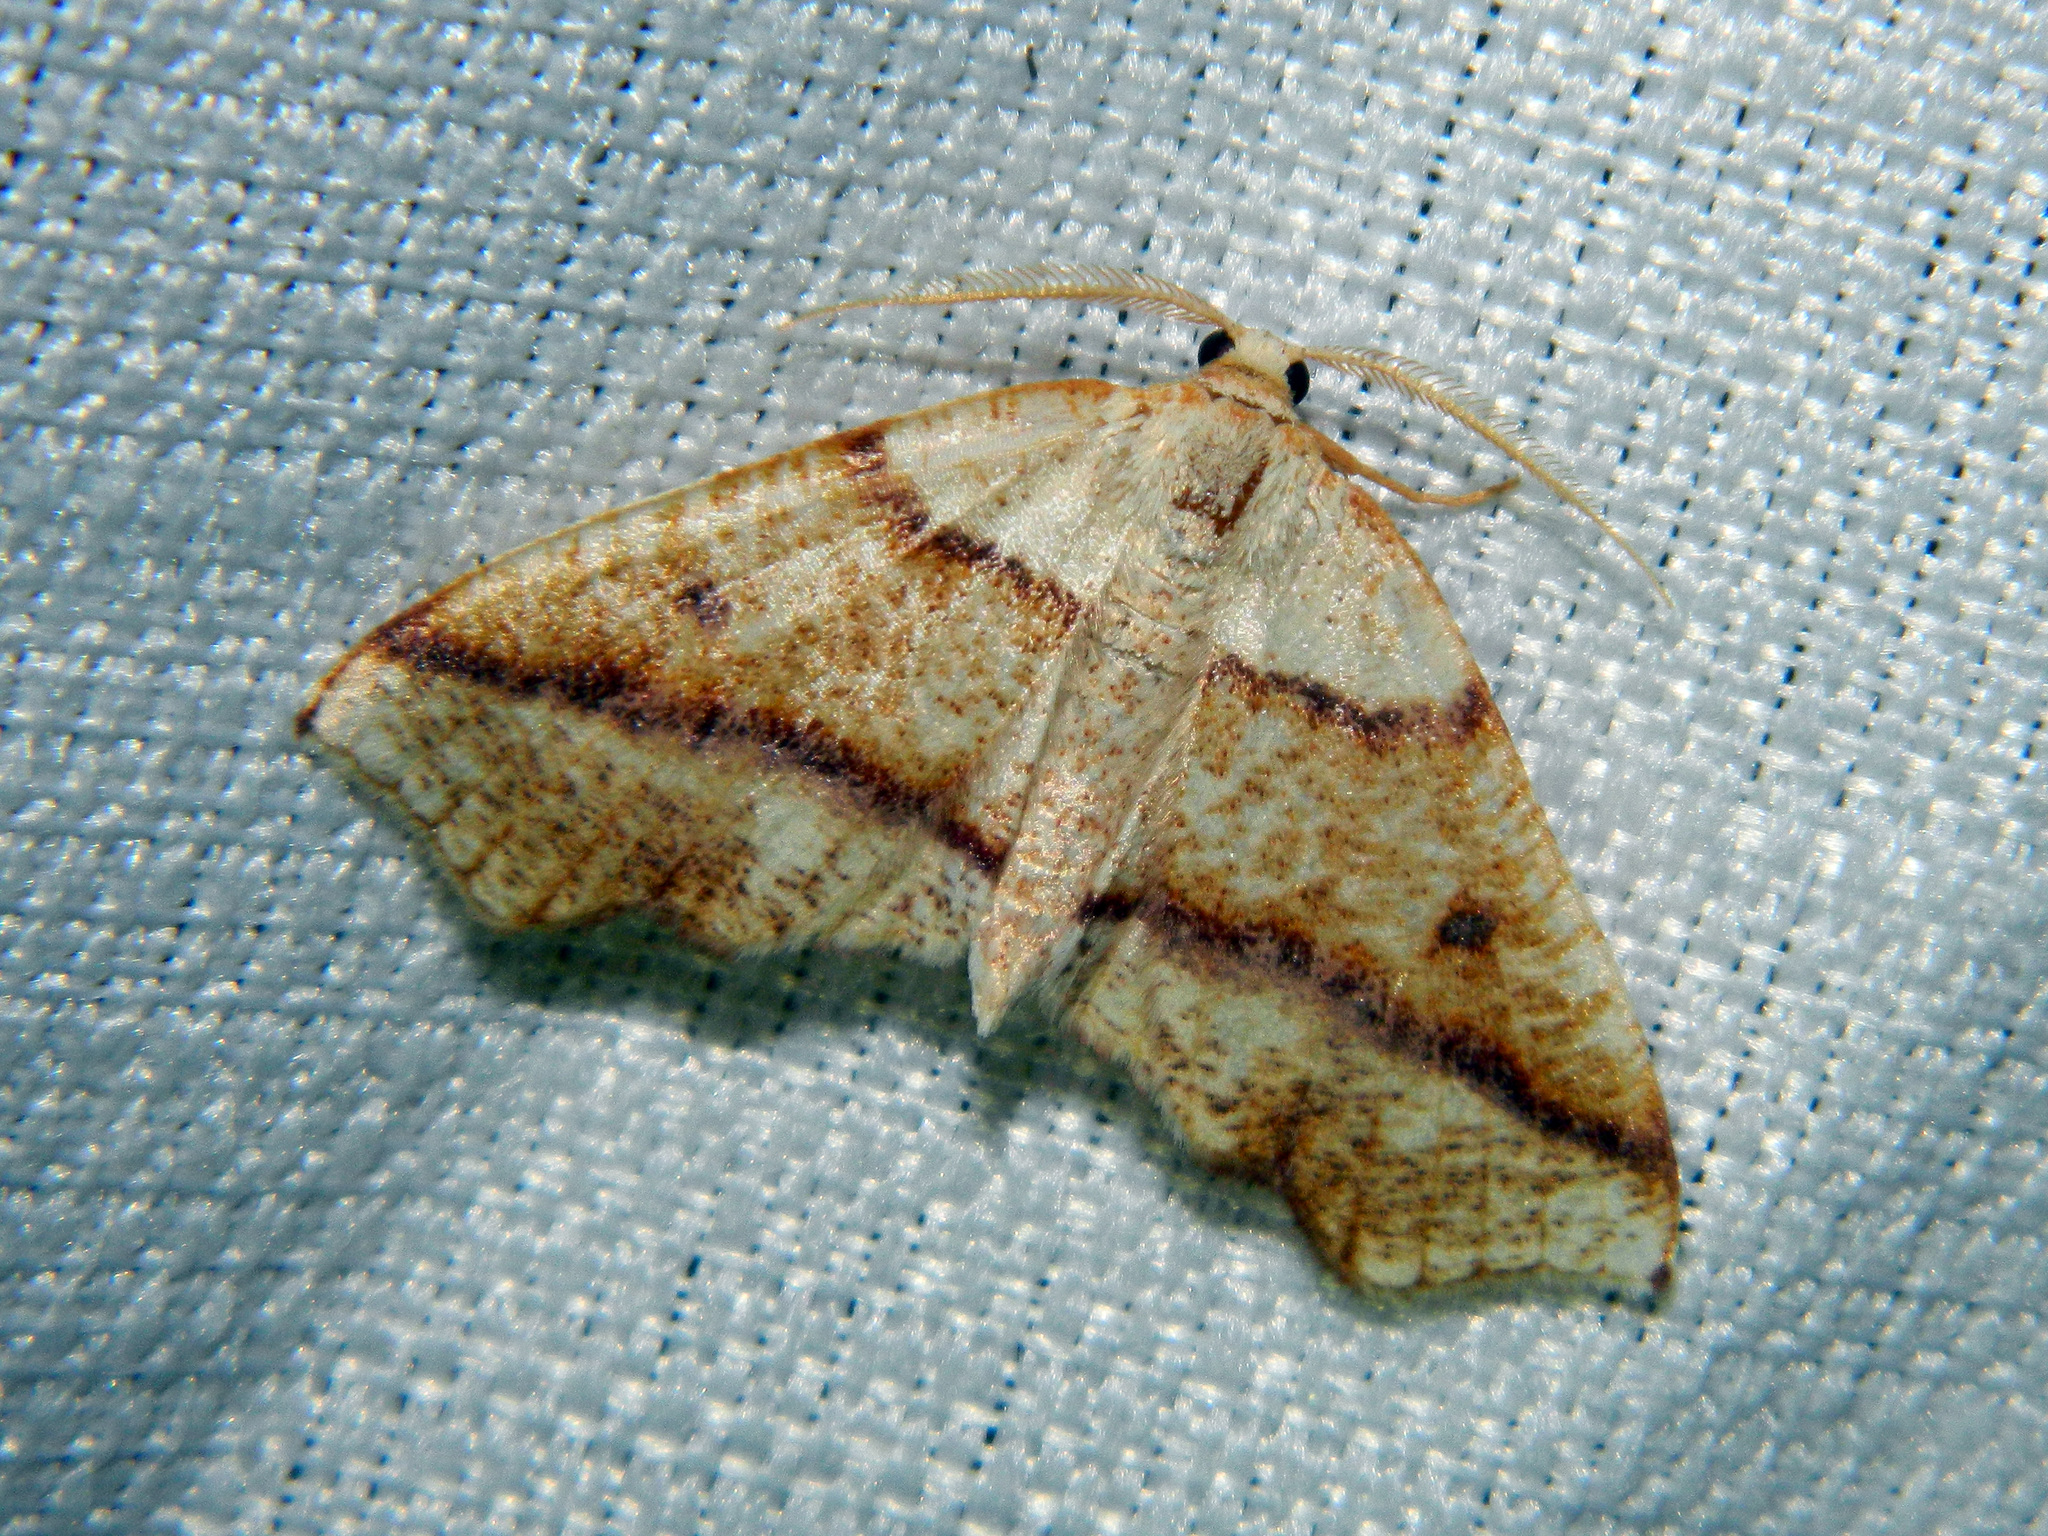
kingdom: Animalia
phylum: Arthropoda
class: Insecta
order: Lepidoptera
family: Geometridae
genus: Plagodis
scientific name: Plagodis alcoolaria
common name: Hollow-spotted plagodis
